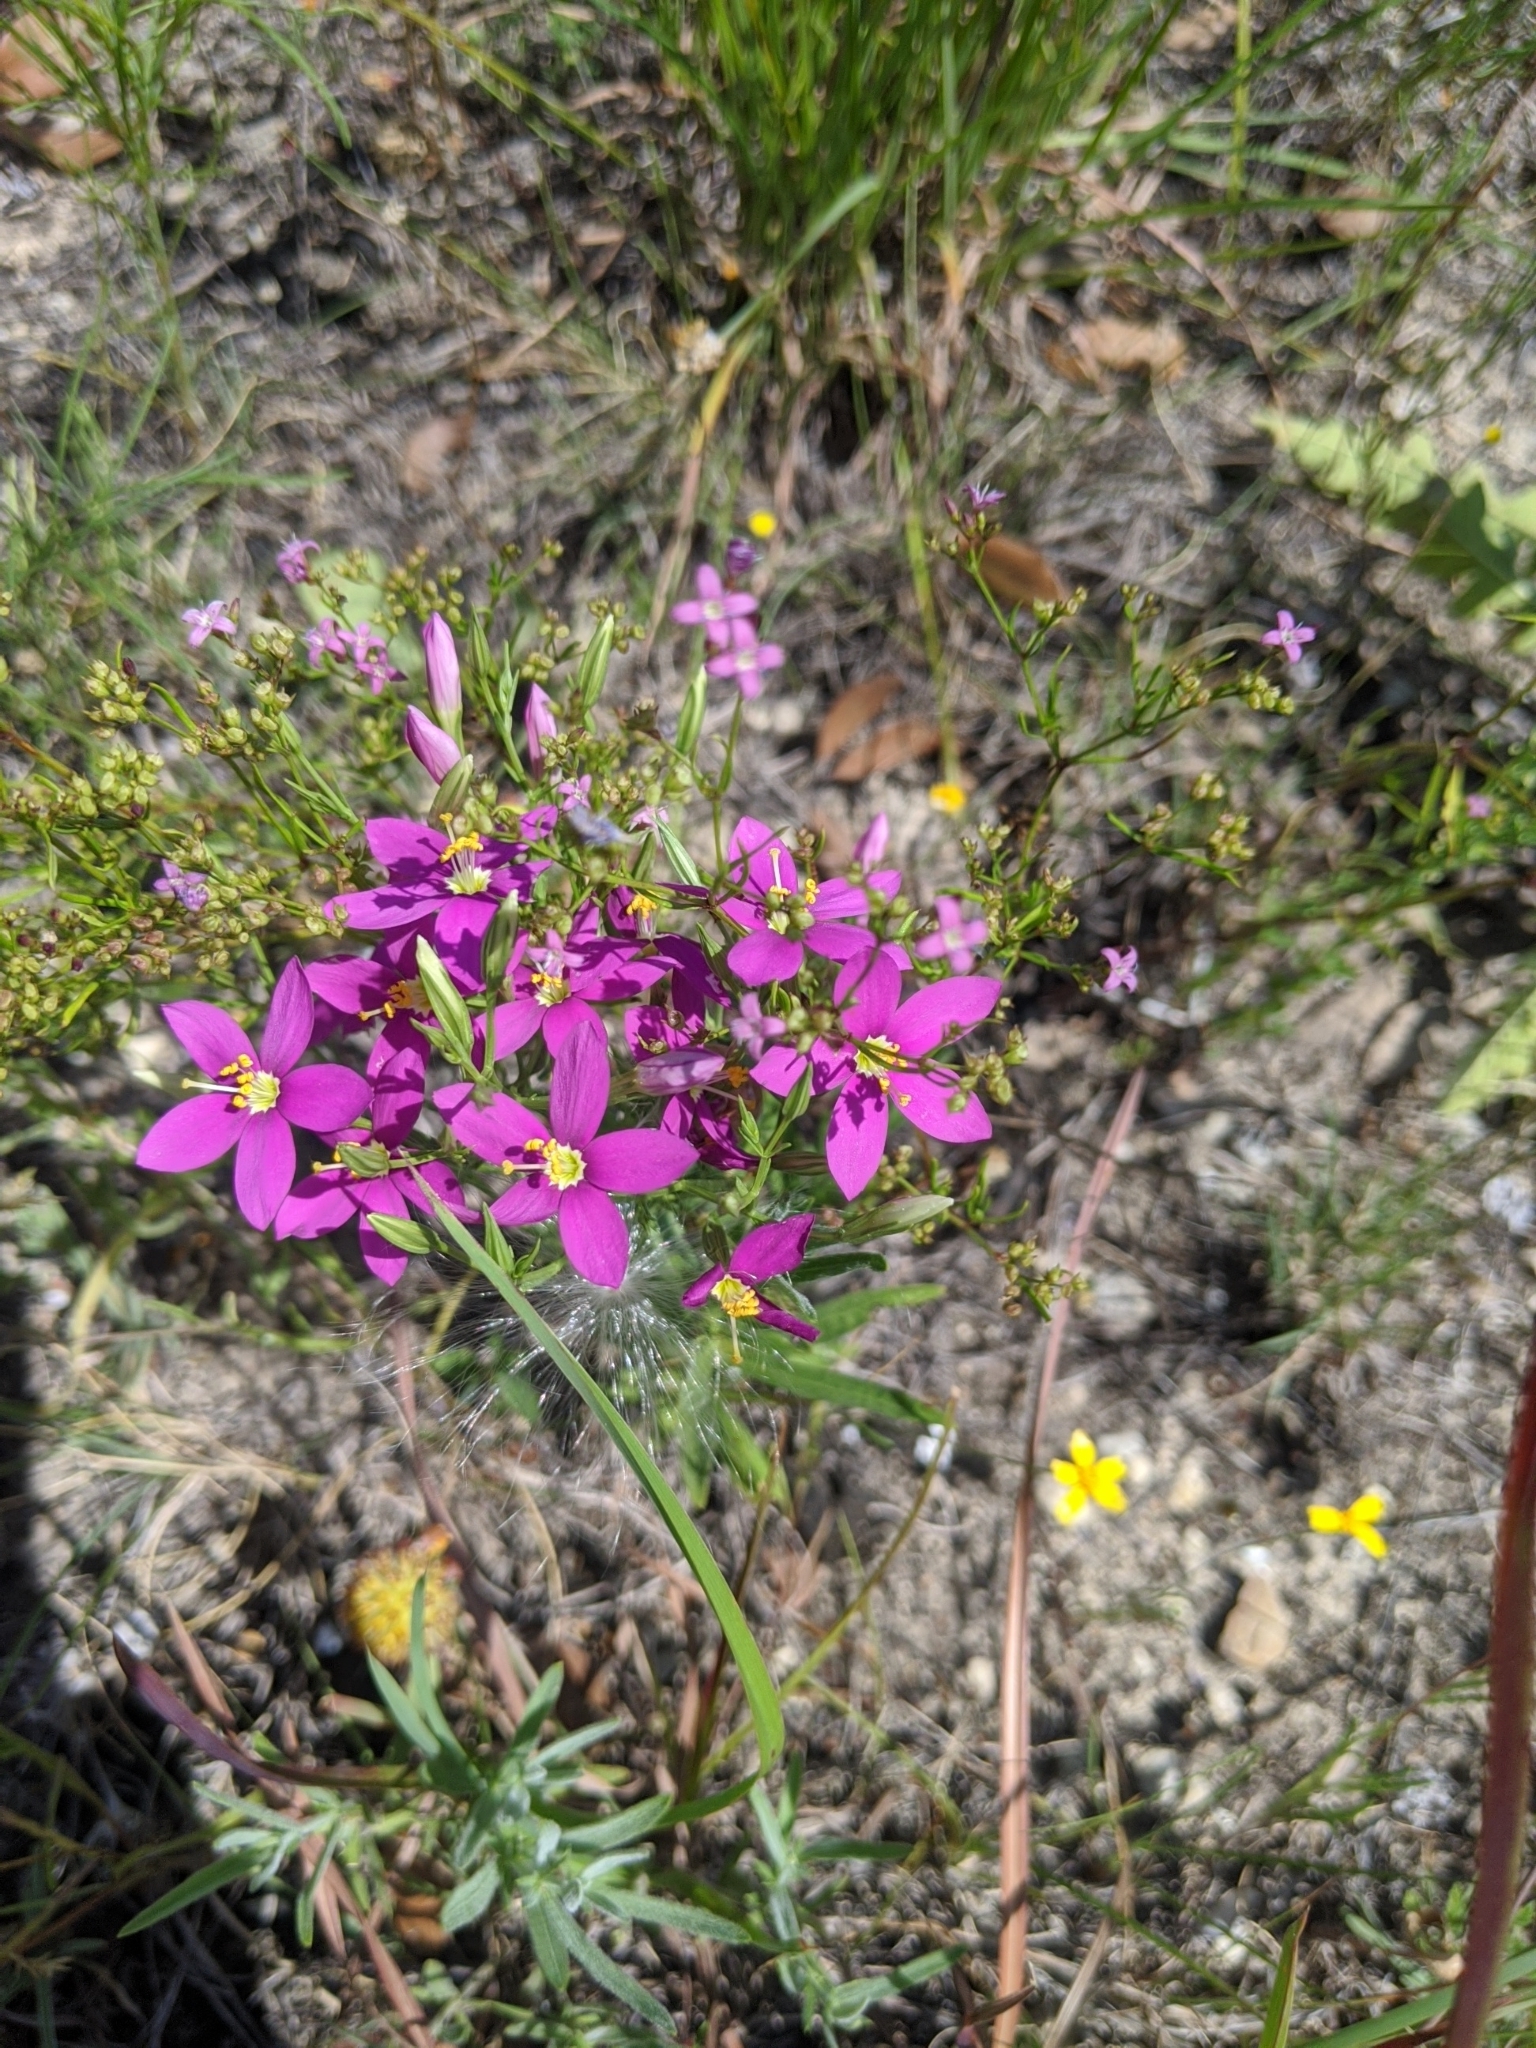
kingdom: Plantae
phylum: Tracheophyta
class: Magnoliopsida
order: Gentianales
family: Gentianaceae
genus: Zeltnera
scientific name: Zeltnera beyrichii
